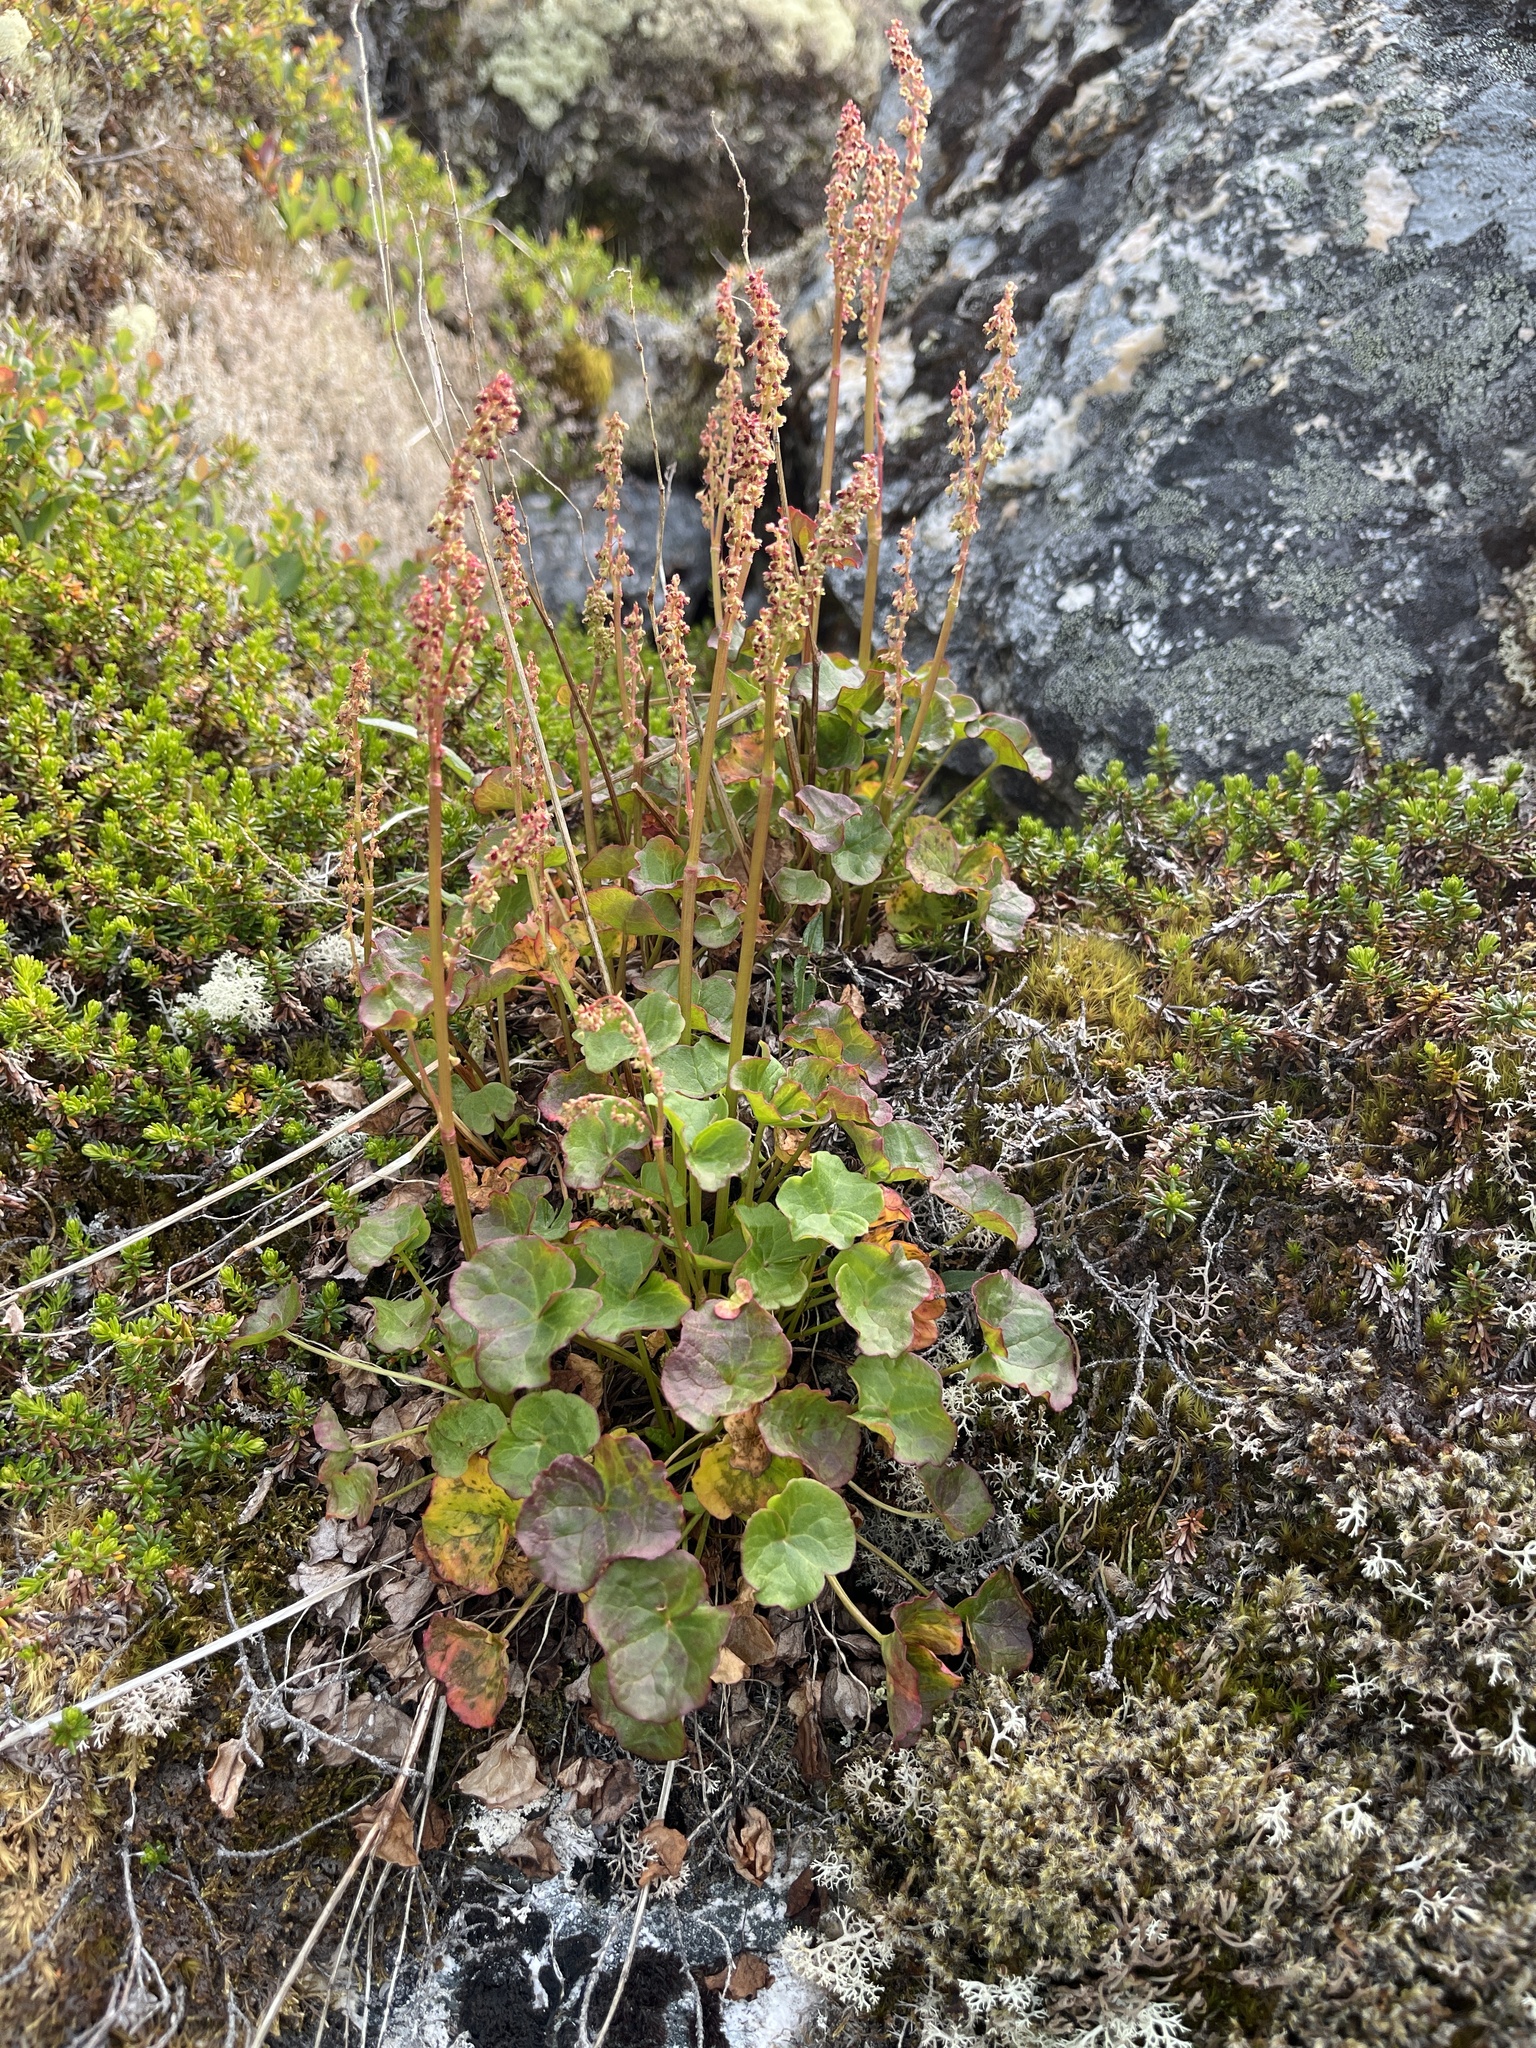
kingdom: Plantae
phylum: Tracheophyta
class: Magnoliopsida
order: Caryophyllales
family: Polygonaceae
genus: Oxyria
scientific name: Oxyria digyna
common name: Alpine mountain-sorrel
